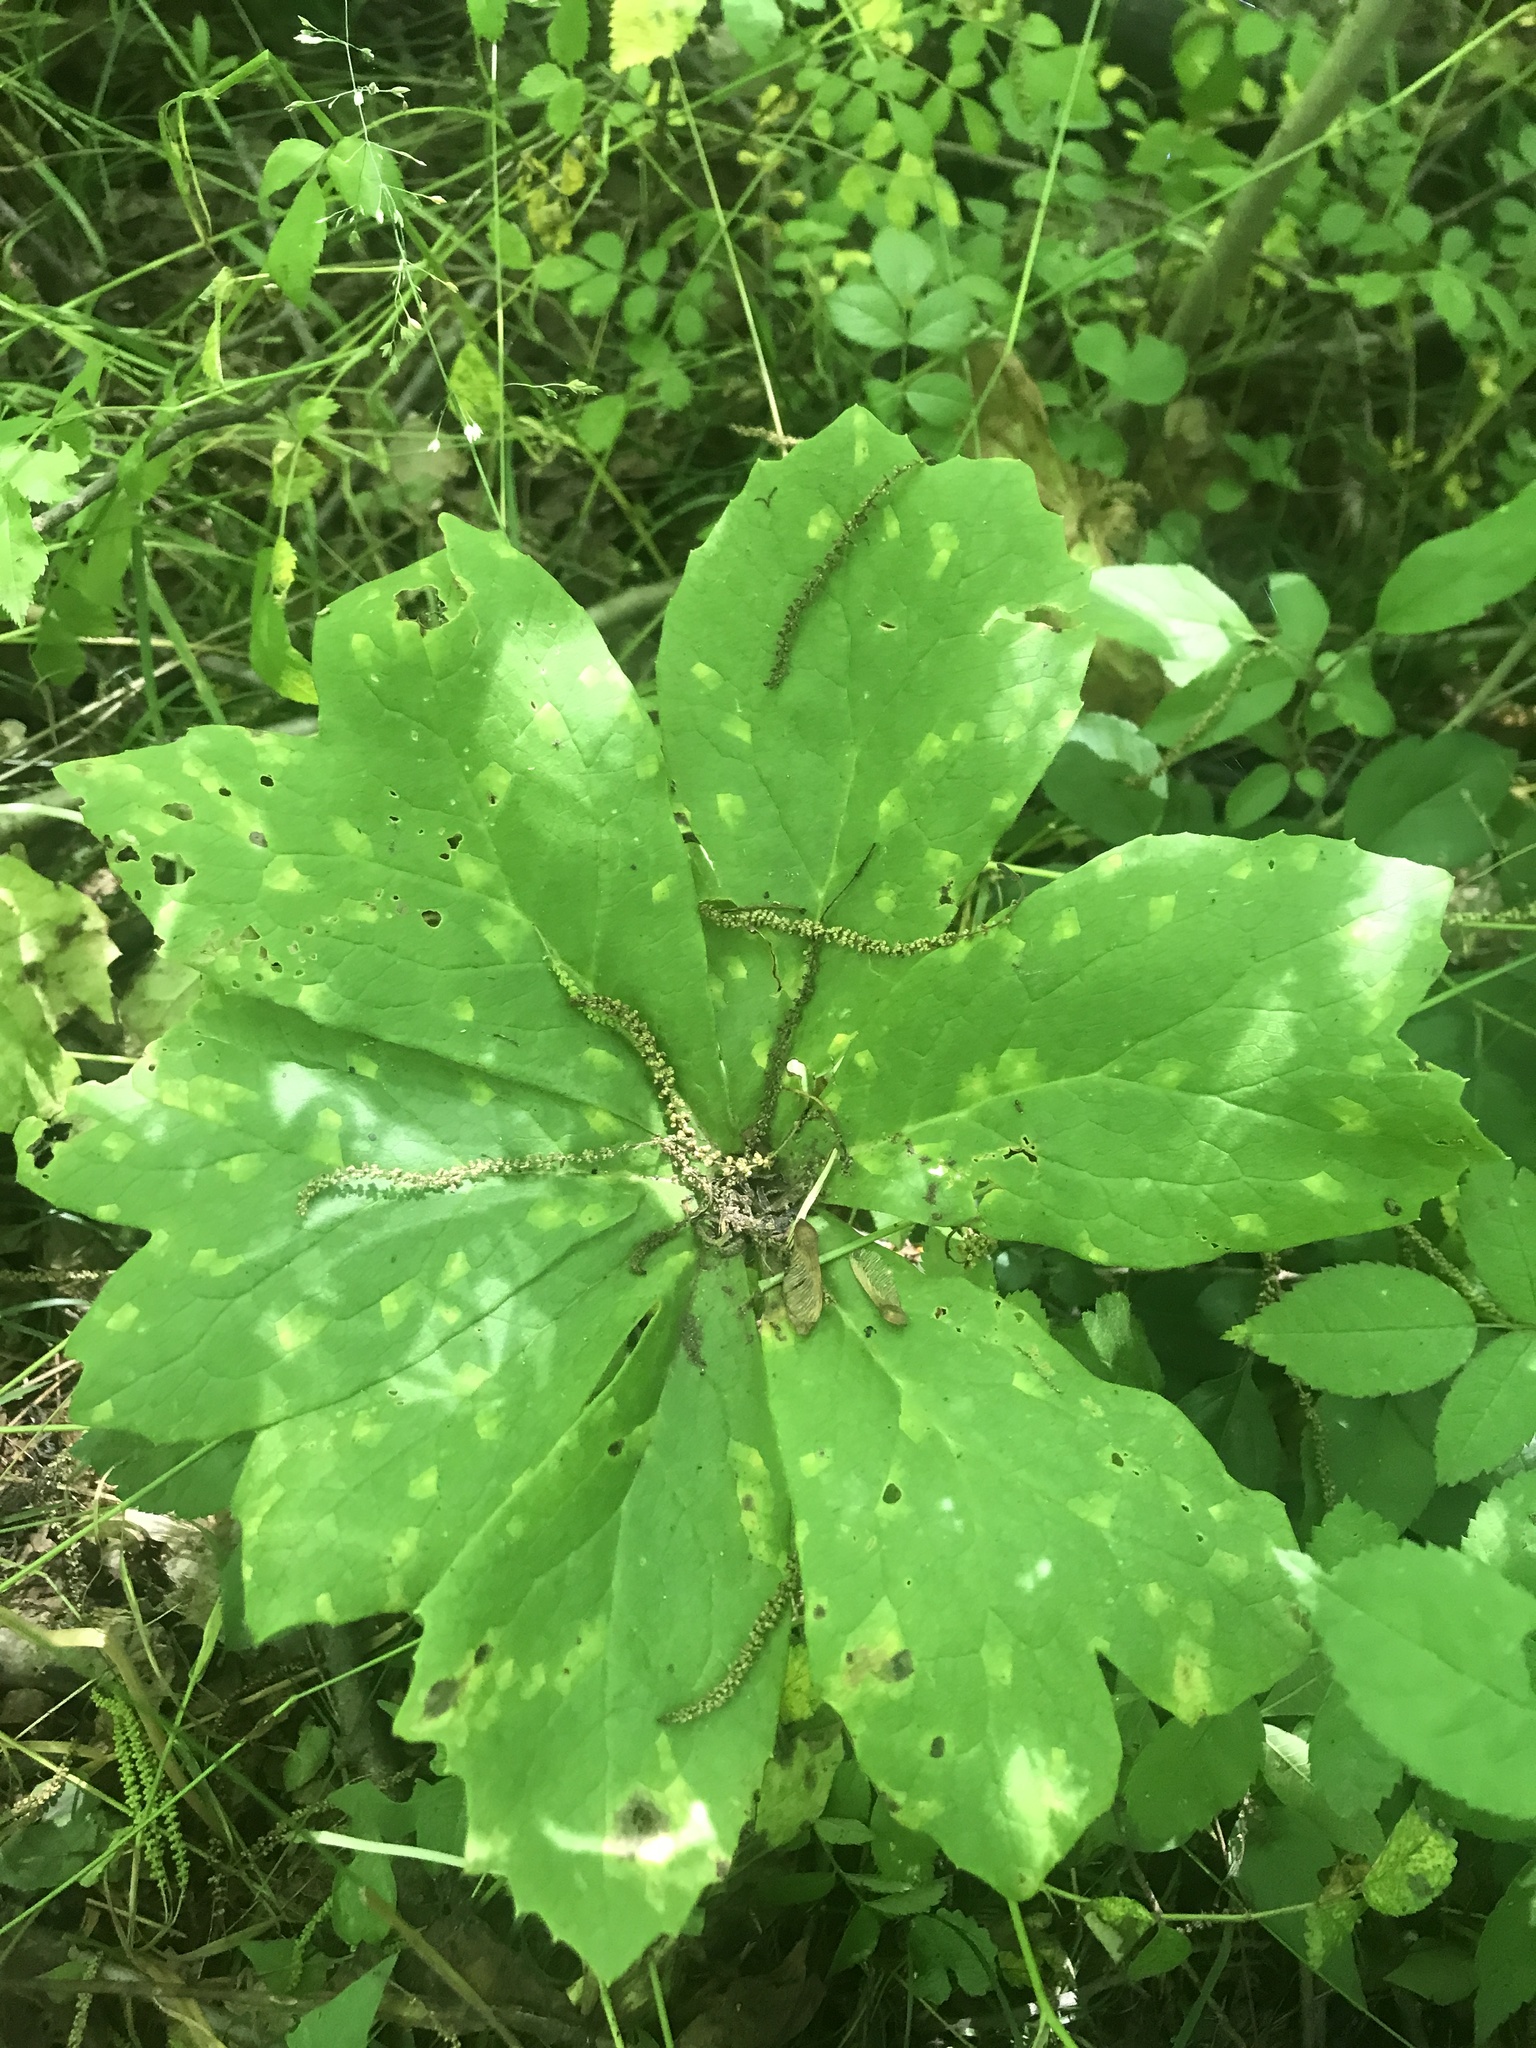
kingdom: Plantae
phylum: Tracheophyta
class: Magnoliopsida
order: Ranunculales
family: Berberidaceae
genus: Podophyllum
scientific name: Podophyllum peltatum
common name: Wild mandrake
